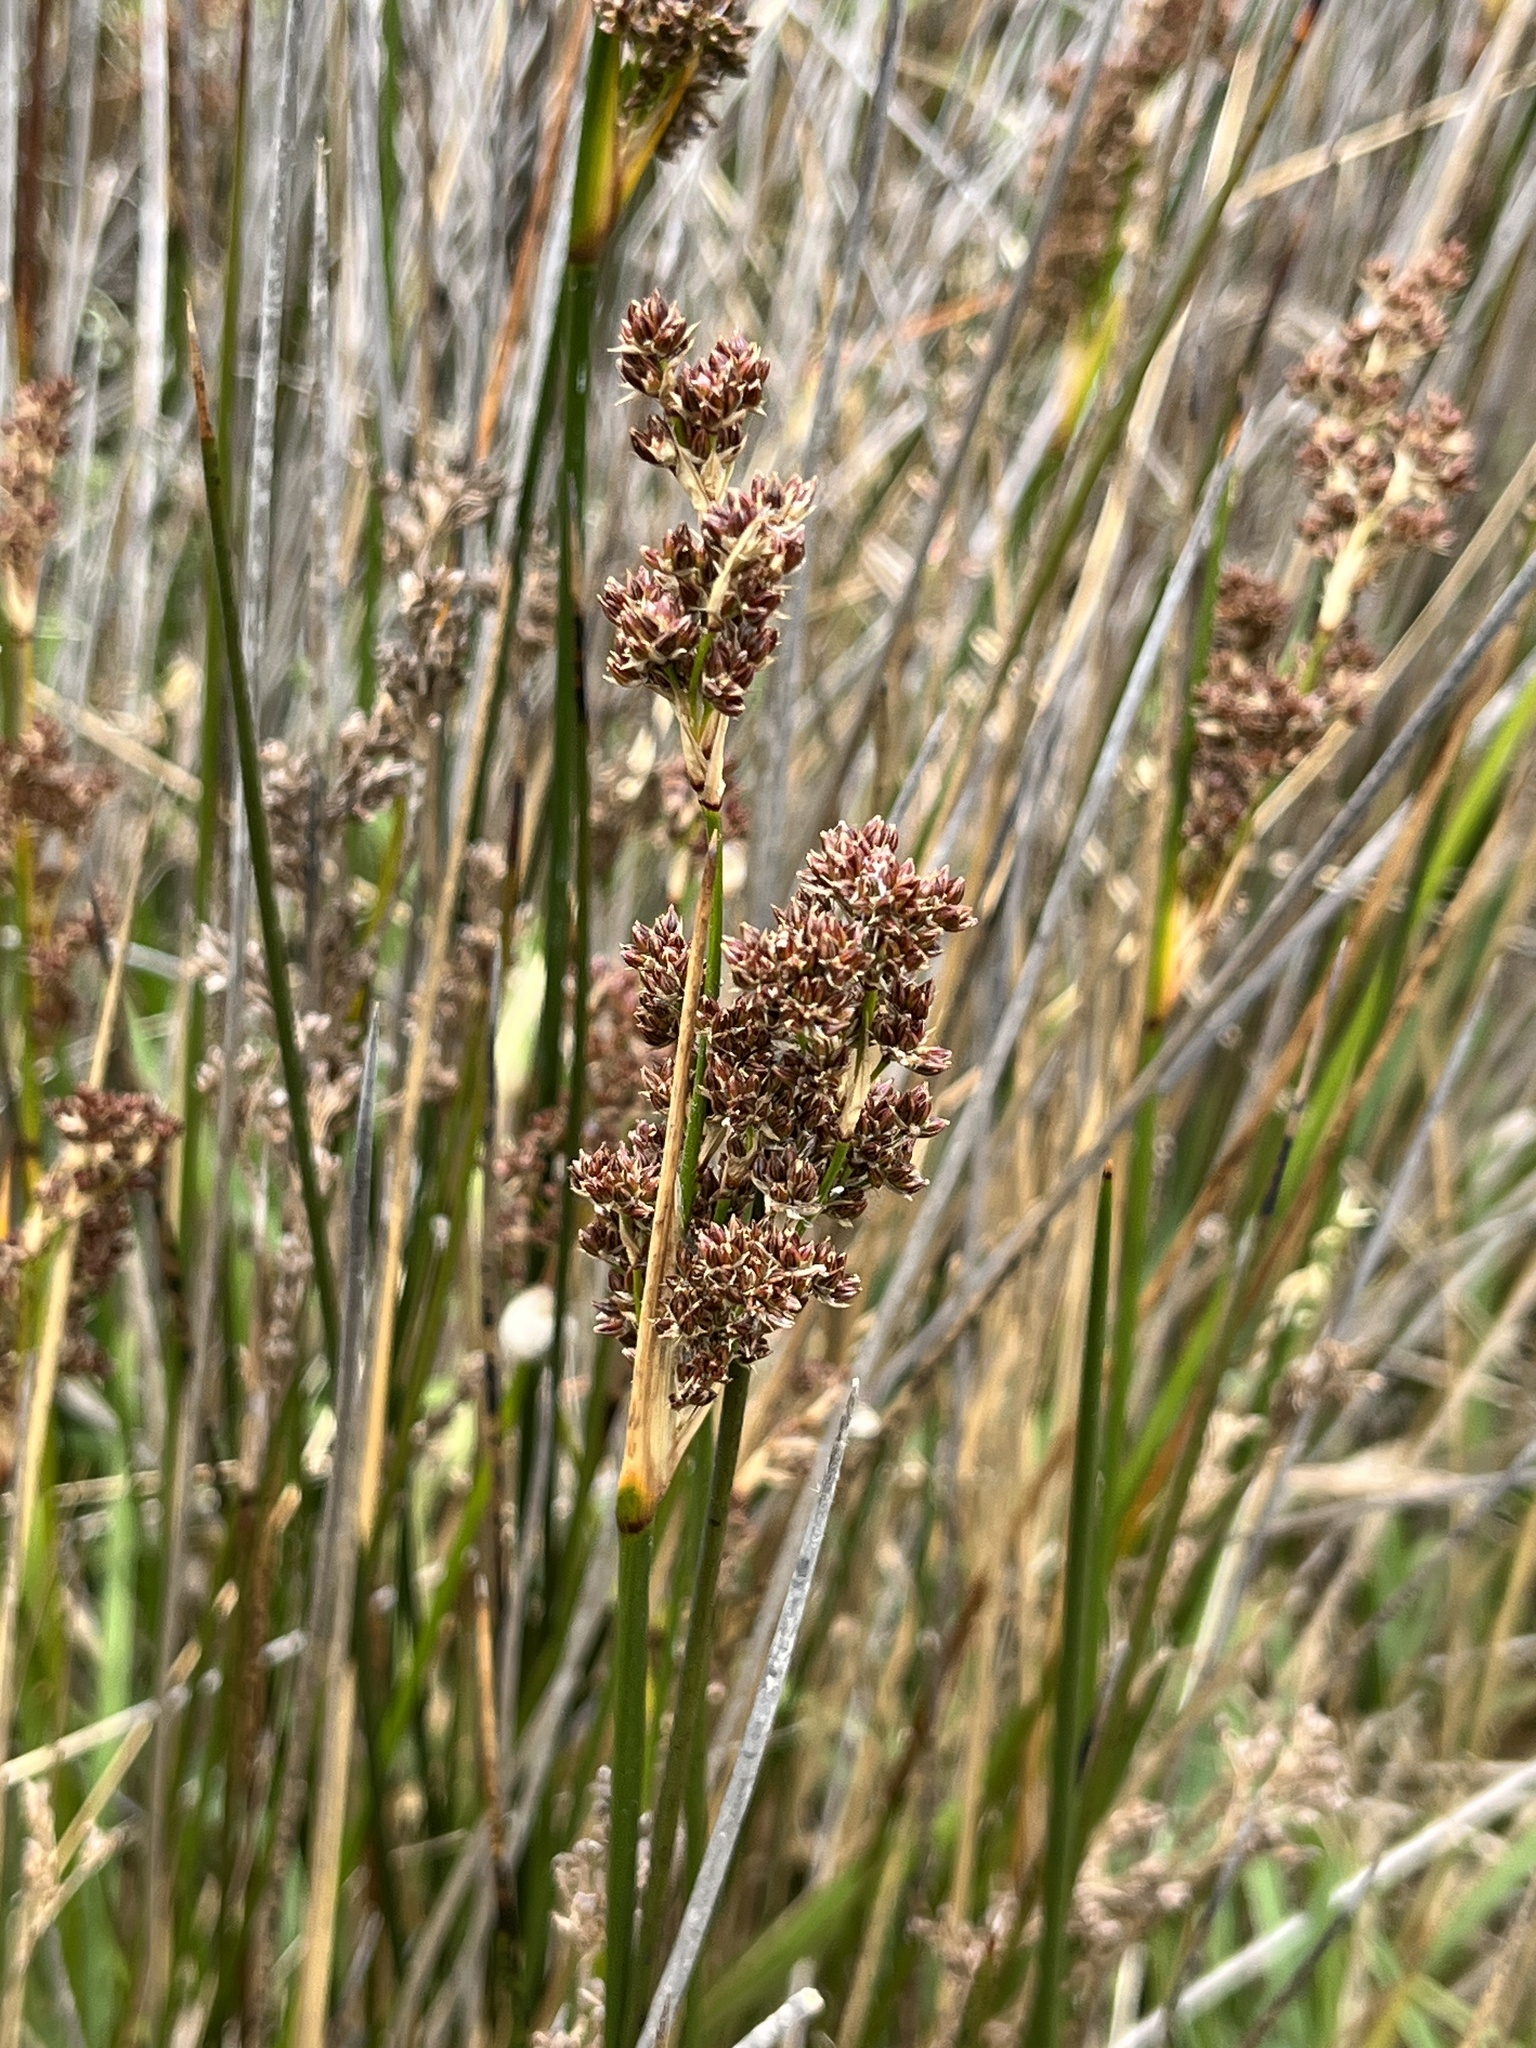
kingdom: Plantae
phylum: Tracheophyta
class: Liliopsida
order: Poales
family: Juncaceae
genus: Juncus
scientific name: Juncus kraussii
